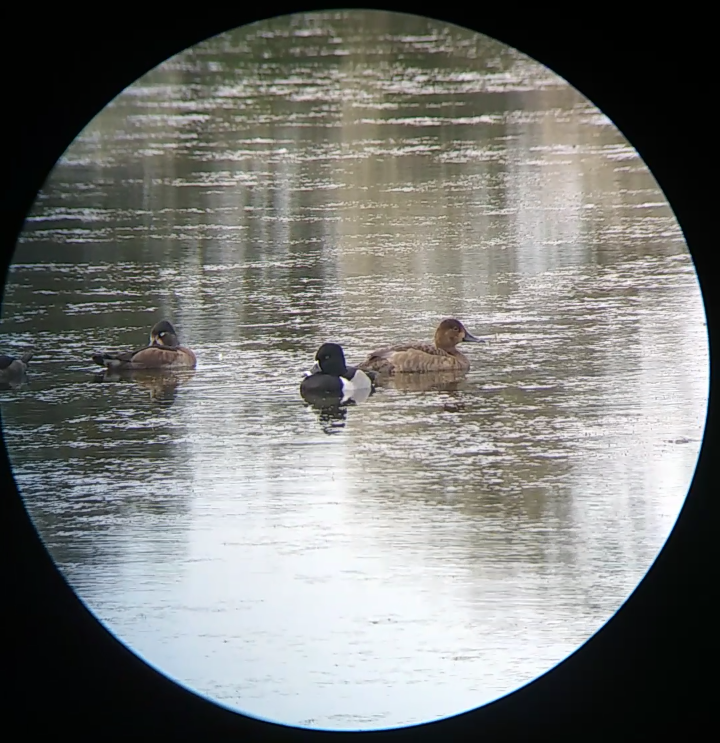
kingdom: Animalia
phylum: Chordata
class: Aves
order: Anseriformes
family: Anatidae
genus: Aythya
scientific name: Aythya americana
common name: Redhead
